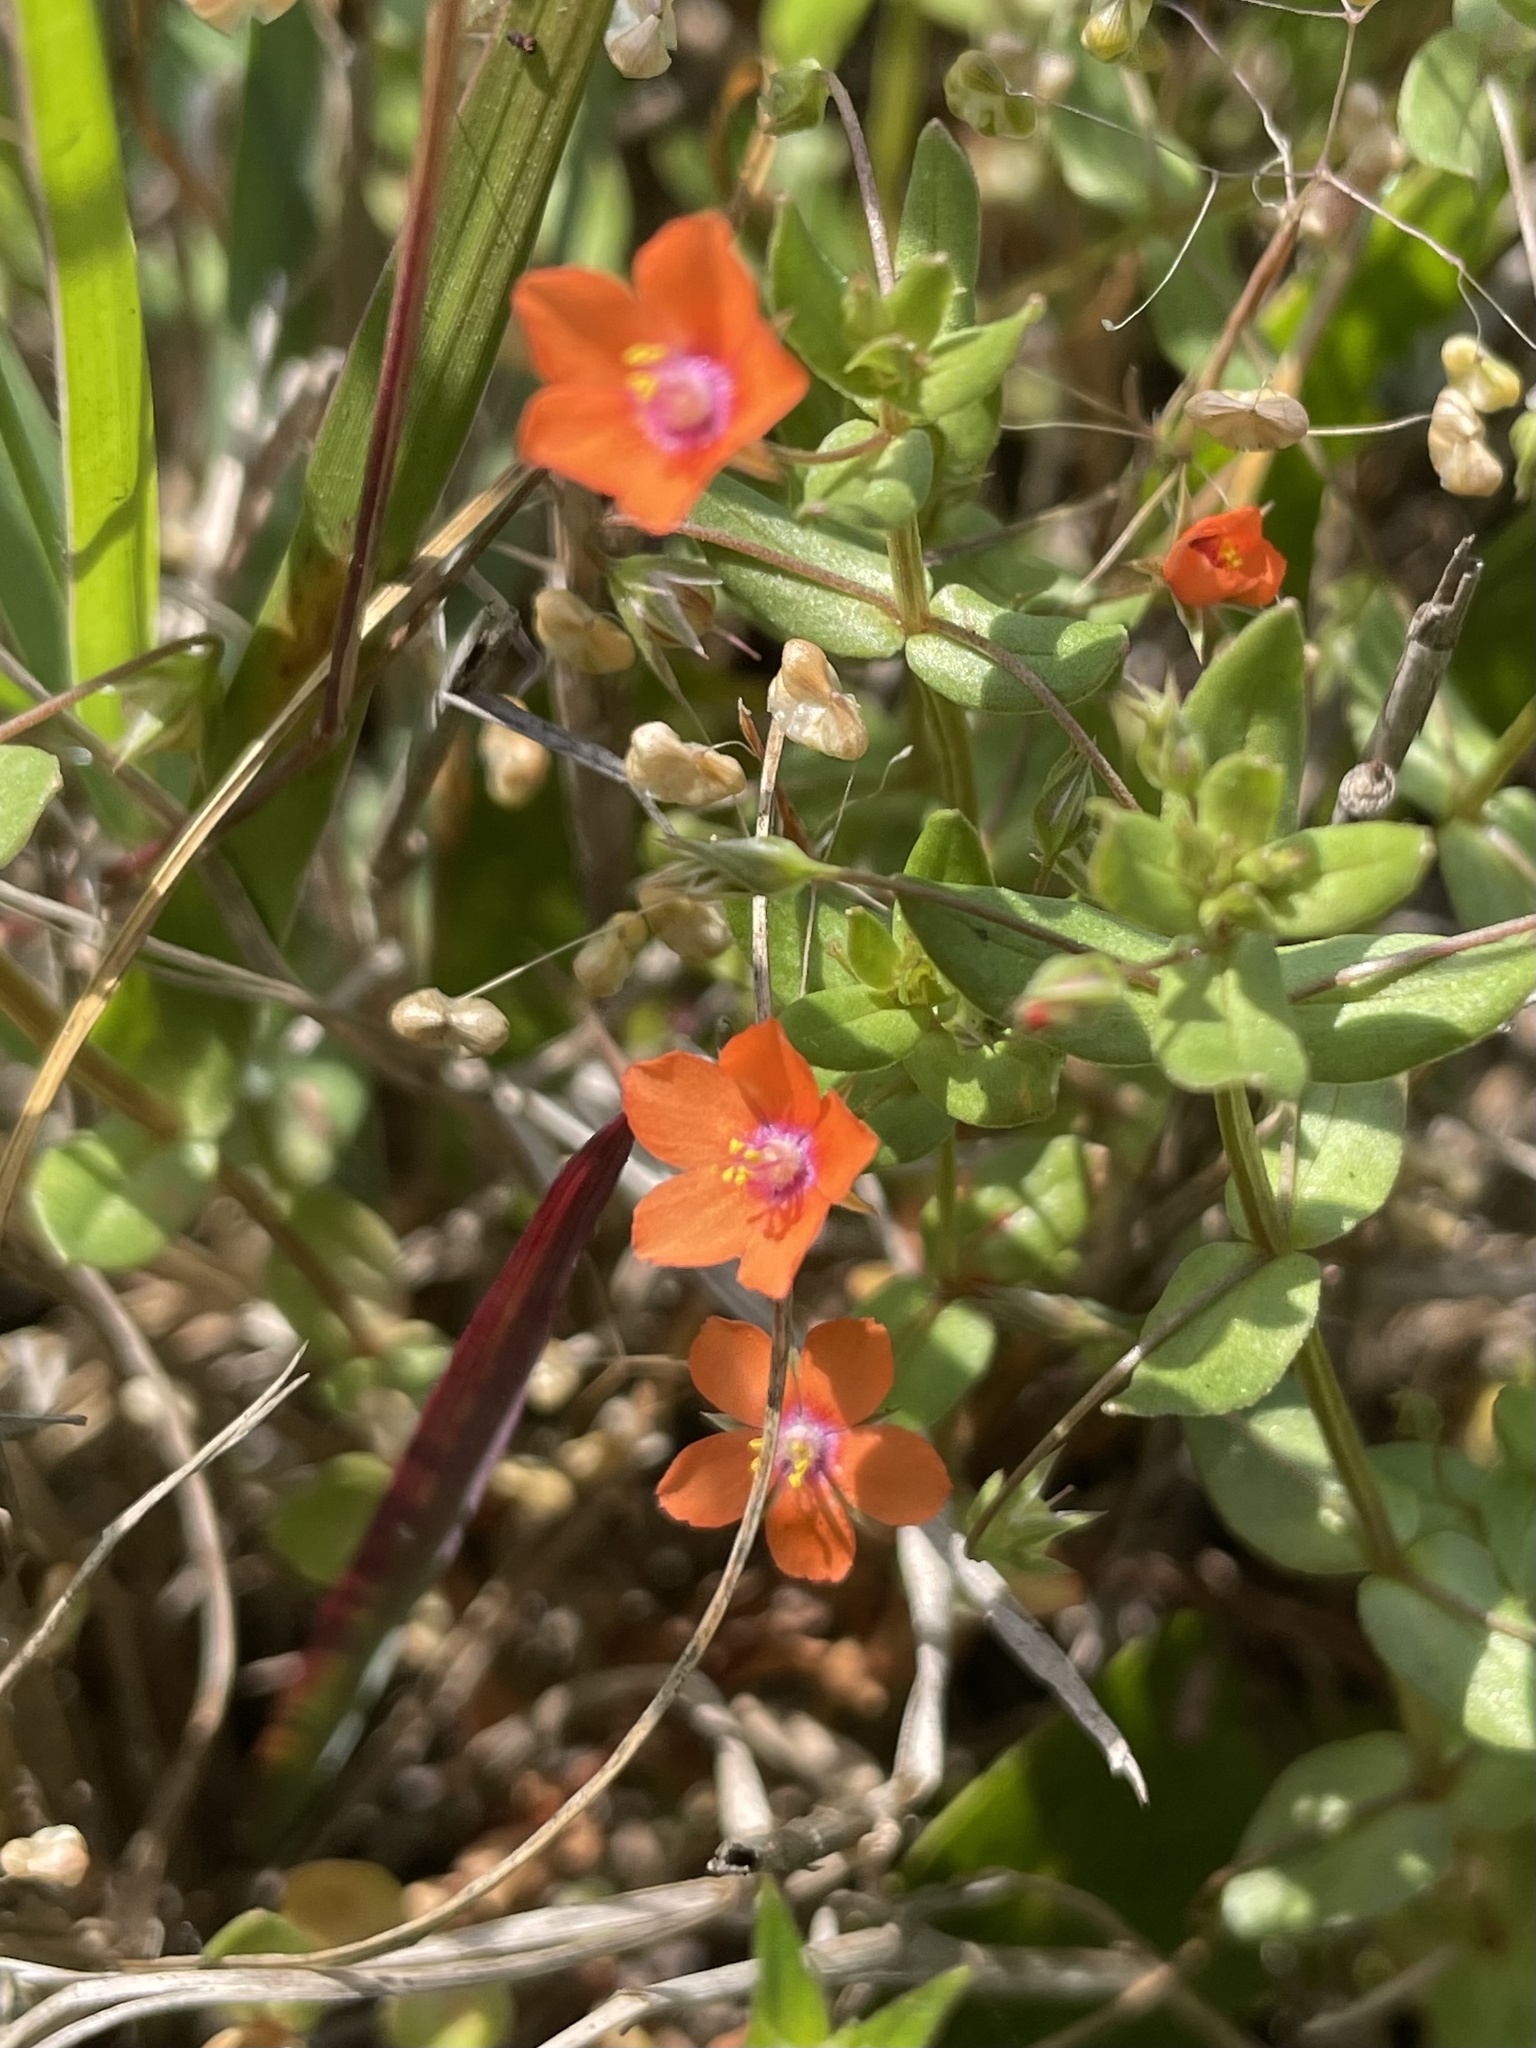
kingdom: Plantae
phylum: Tracheophyta
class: Magnoliopsida
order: Ericales
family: Primulaceae
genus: Lysimachia
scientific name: Lysimachia arvensis
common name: Scarlet pimpernel
